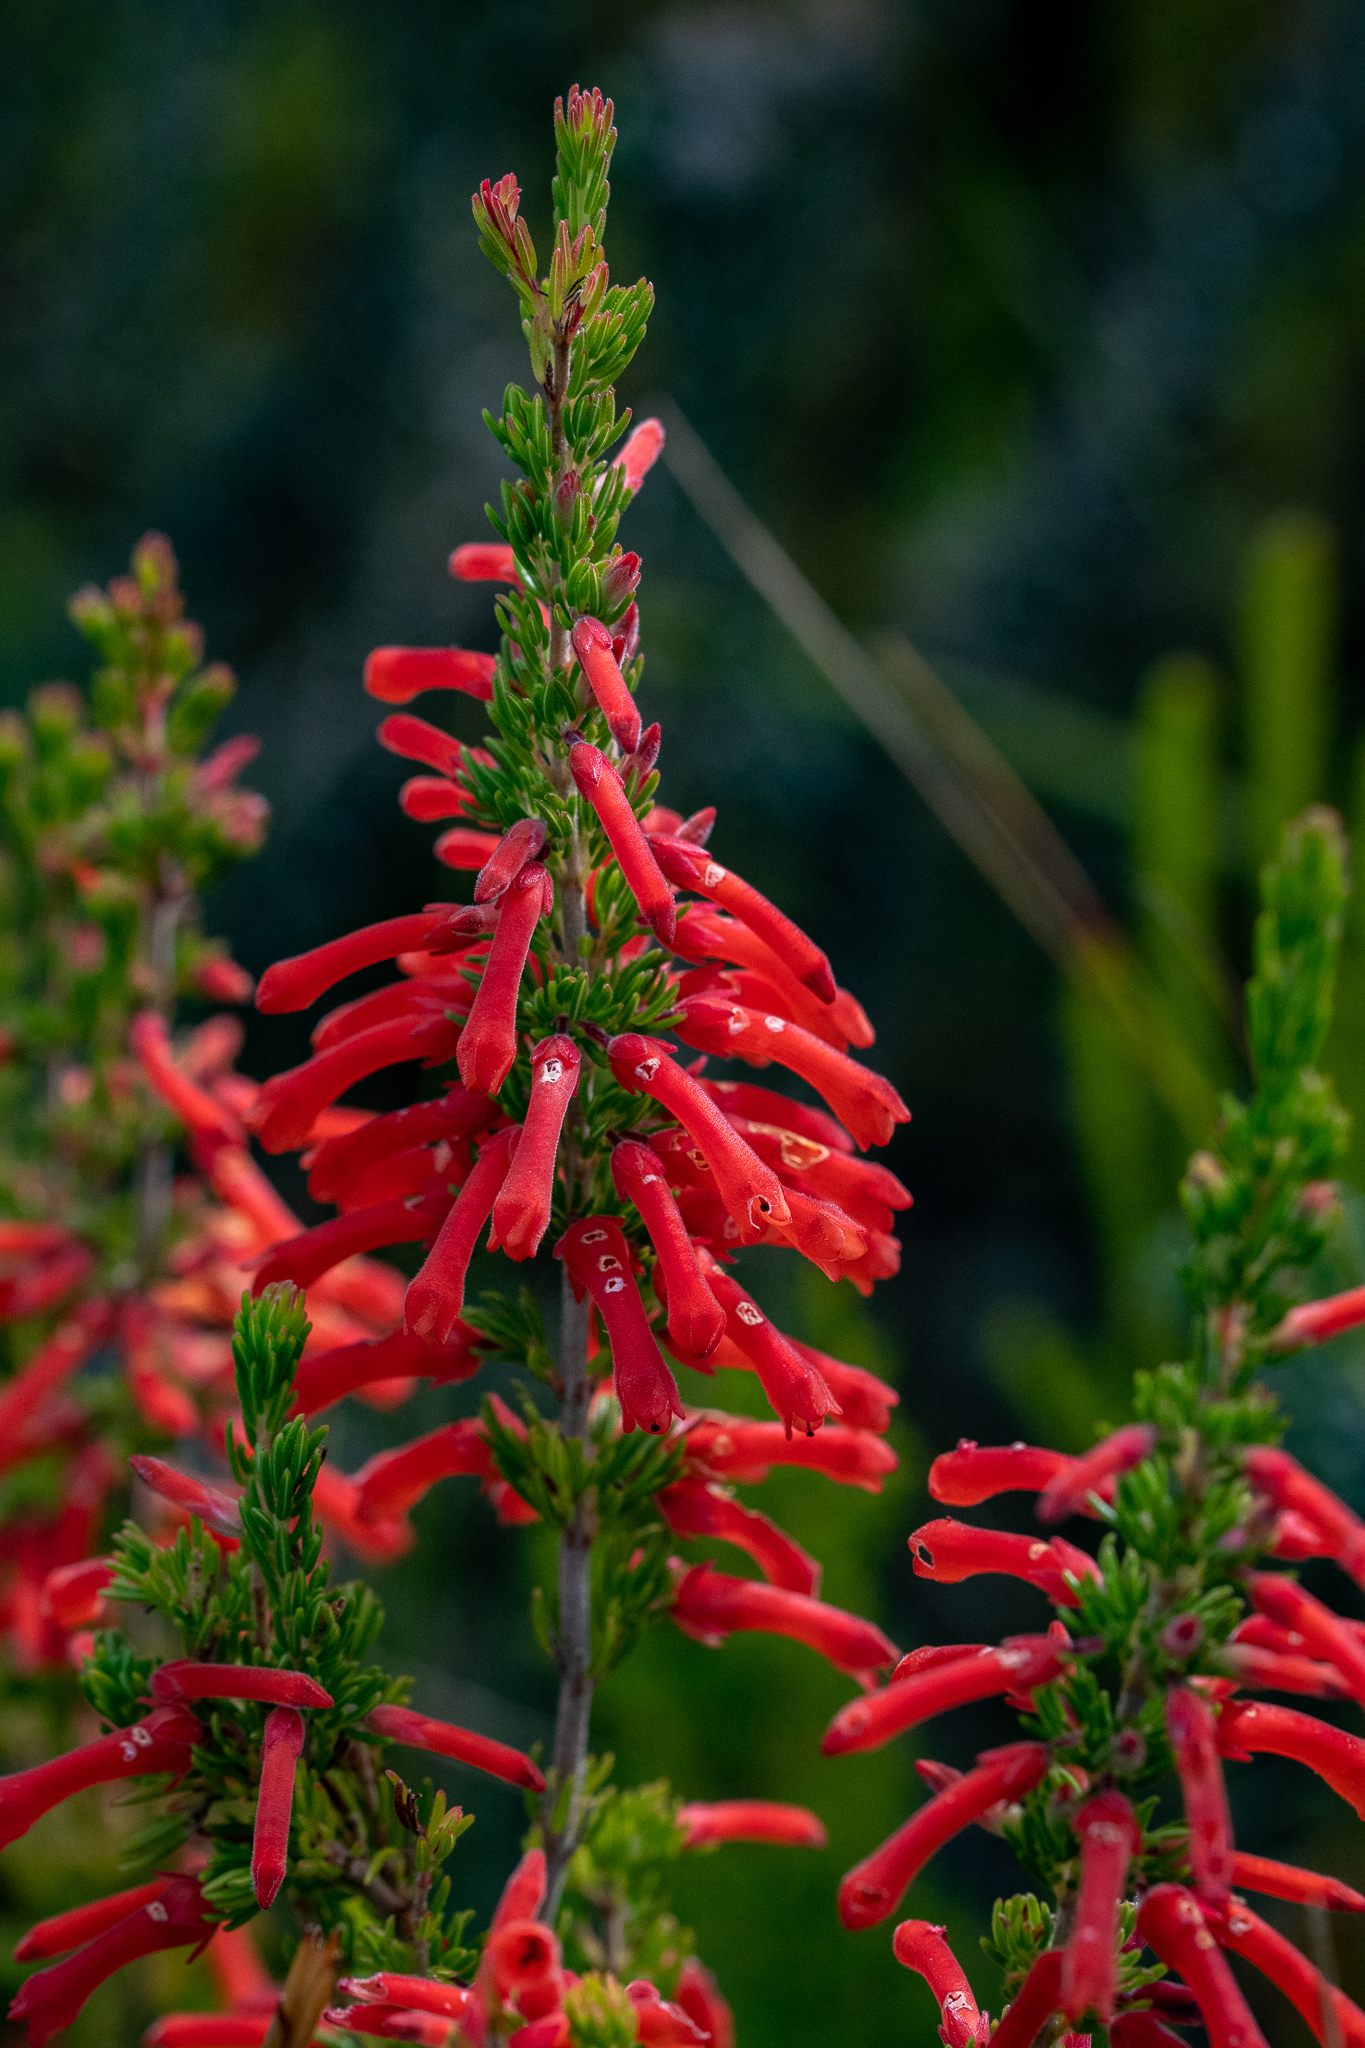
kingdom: Plantae
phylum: Tracheophyta
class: Magnoliopsida
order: Ericales
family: Ericaceae
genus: Erica
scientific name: Erica pillansii
